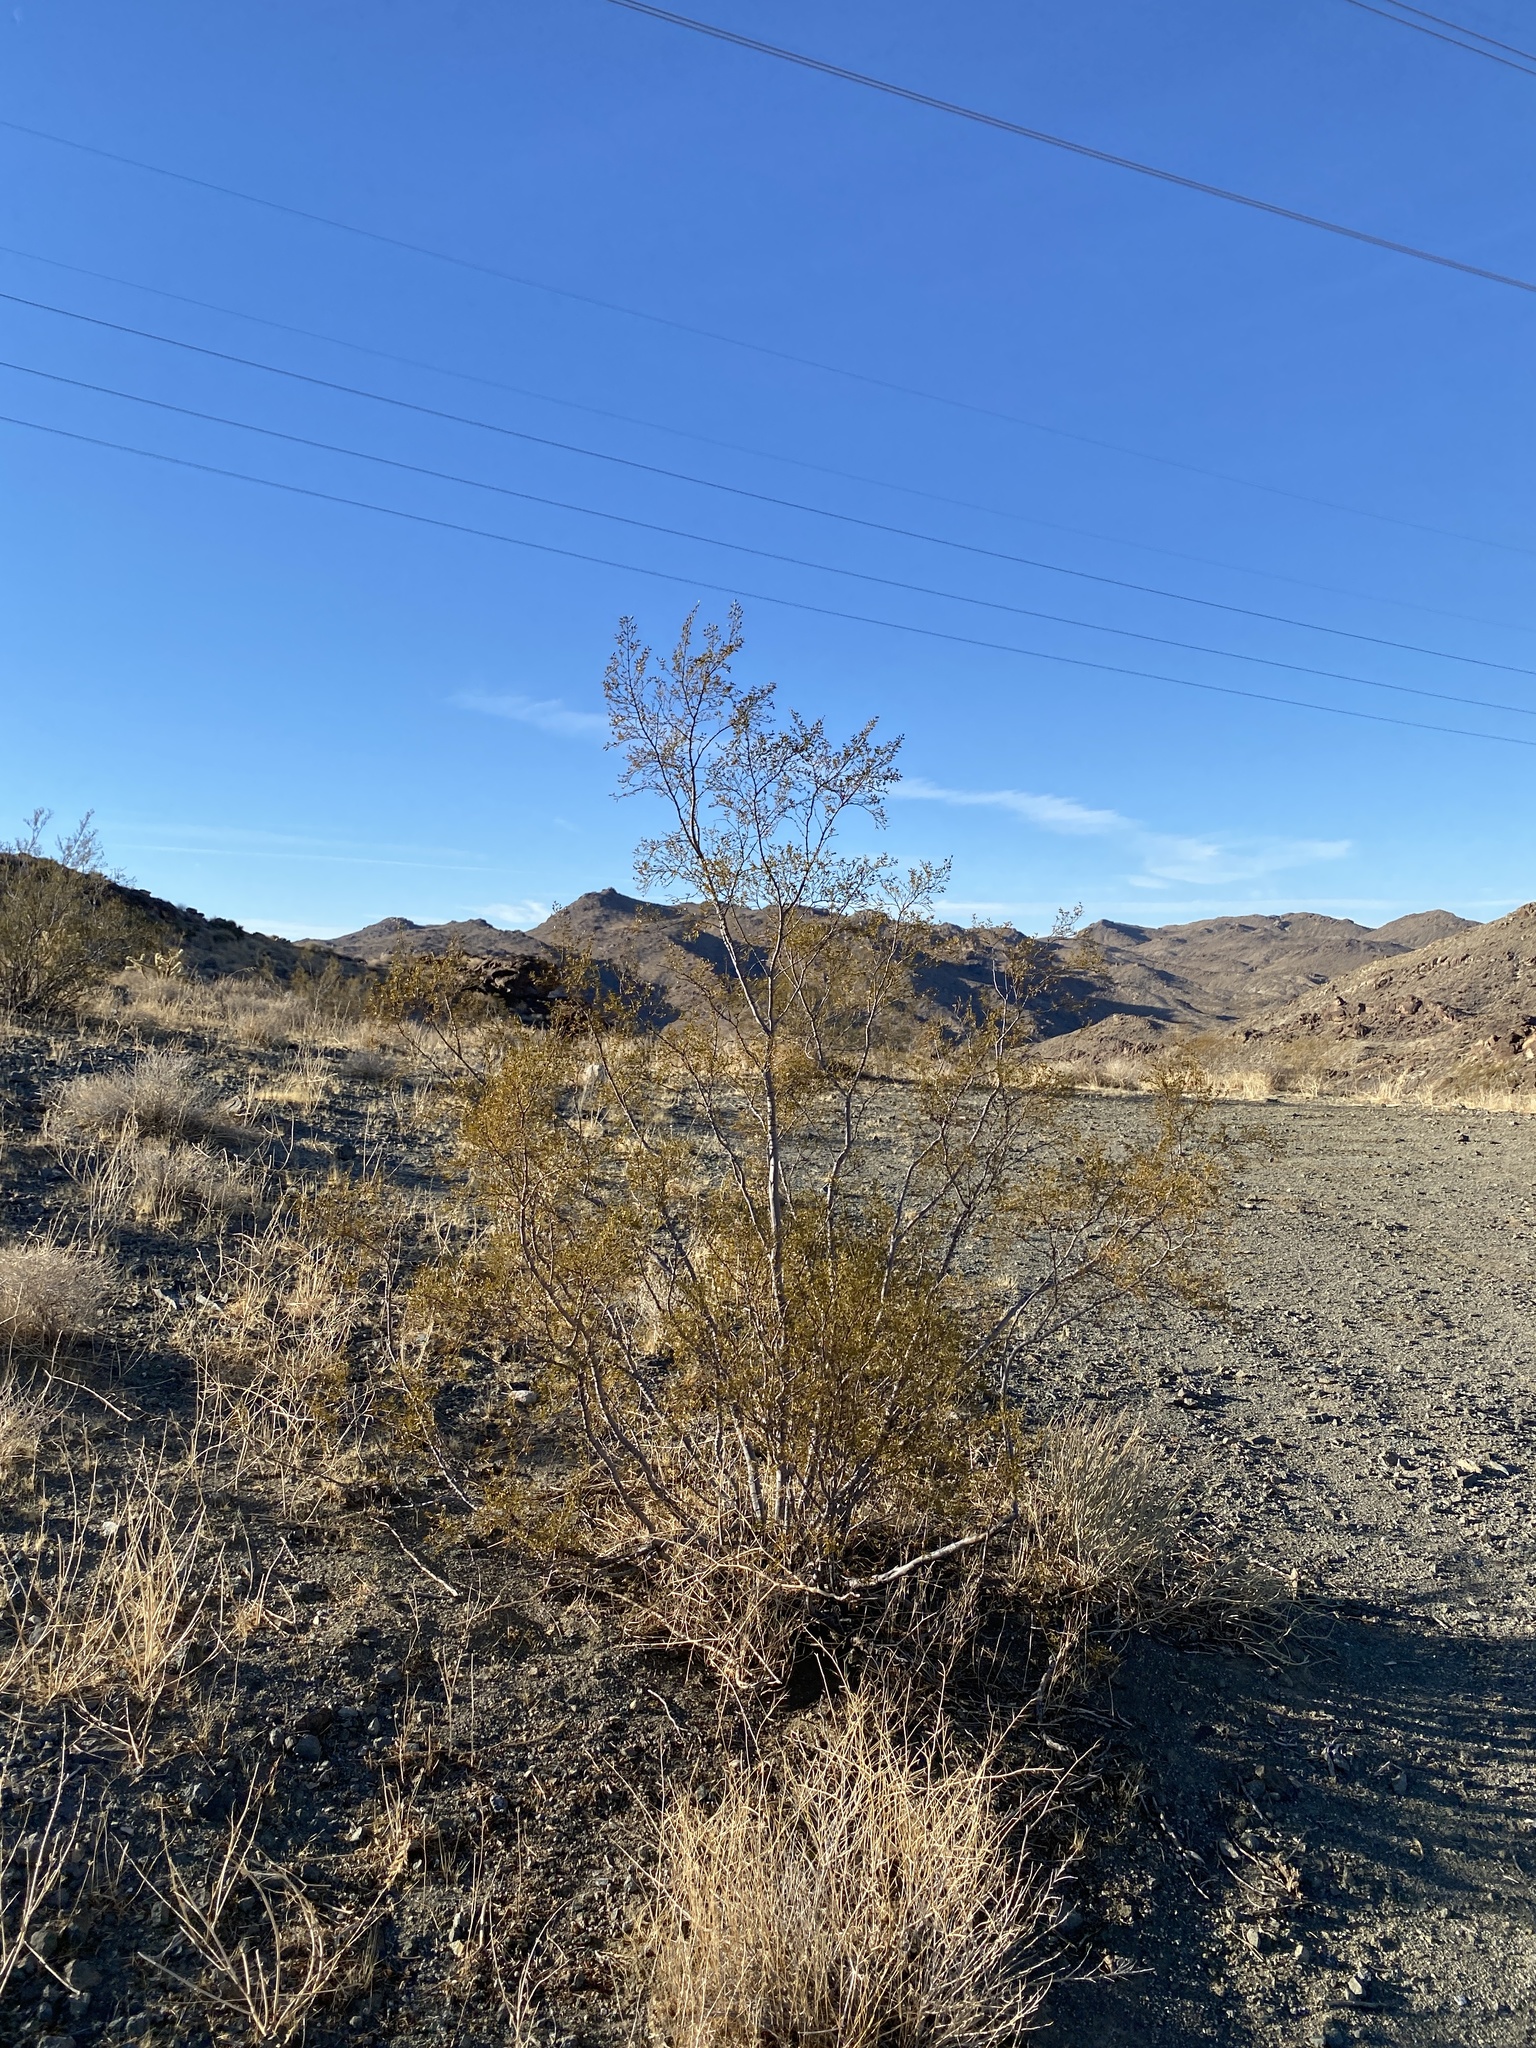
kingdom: Plantae
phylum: Tracheophyta
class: Magnoliopsida
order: Zygophyllales
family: Zygophyllaceae
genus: Larrea
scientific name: Larrea tridentata
